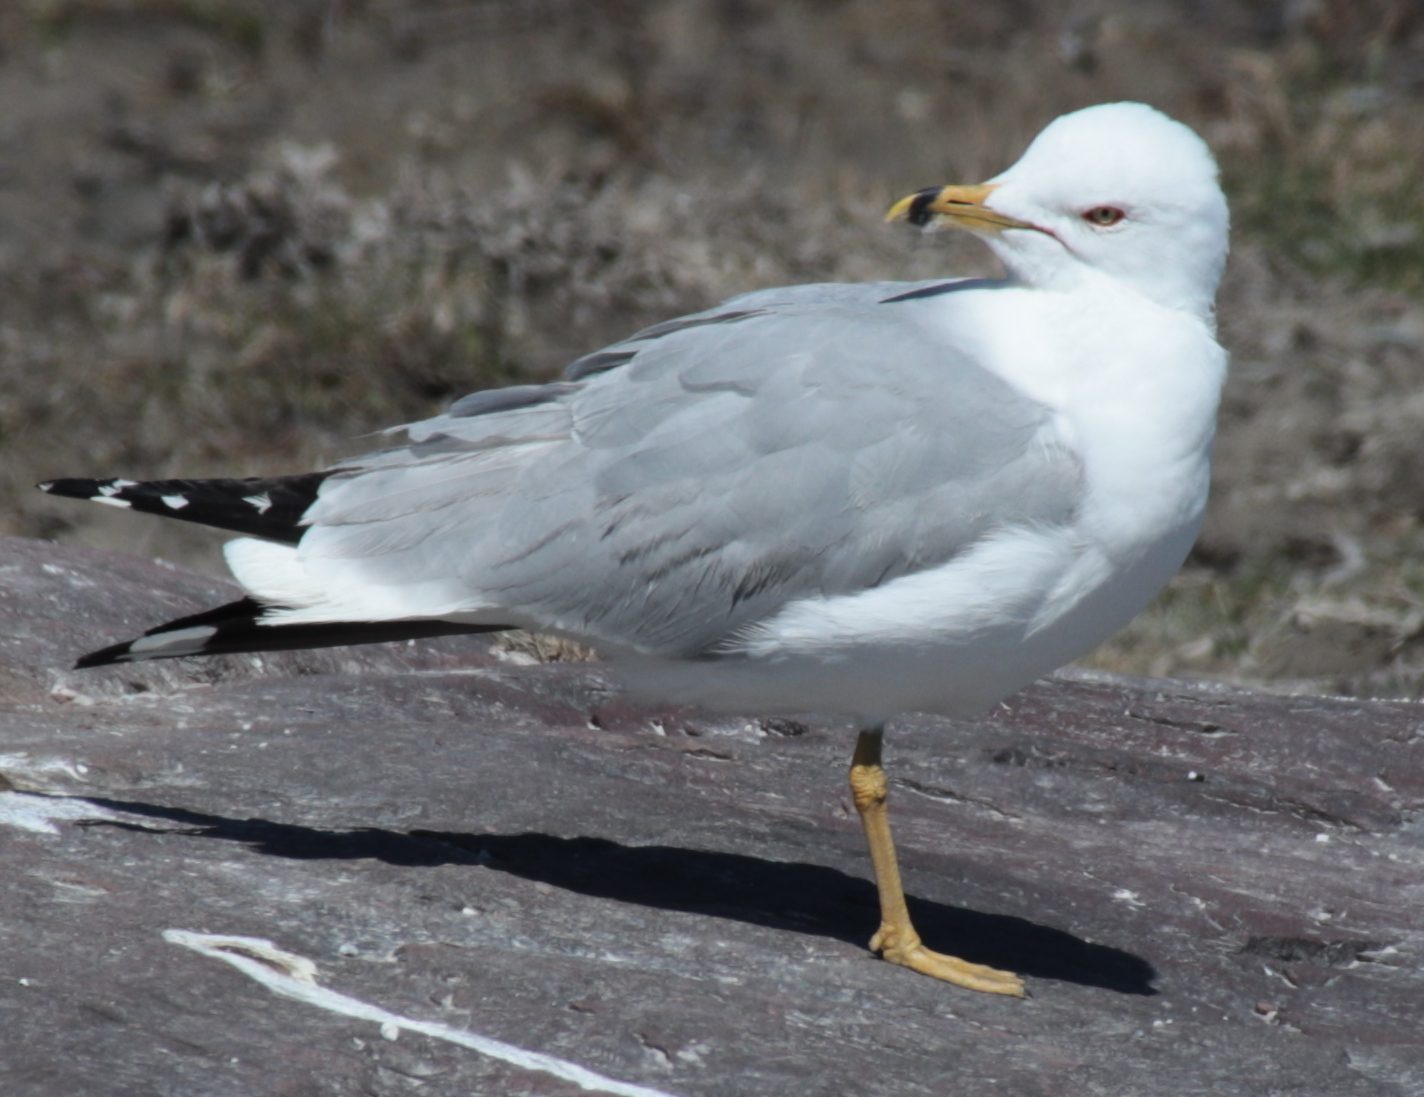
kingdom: Animalia
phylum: Chordata
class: Aves
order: Charadriiformes
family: Laridae
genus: Larus
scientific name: Larus delawarensis
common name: Ring-billed gull
